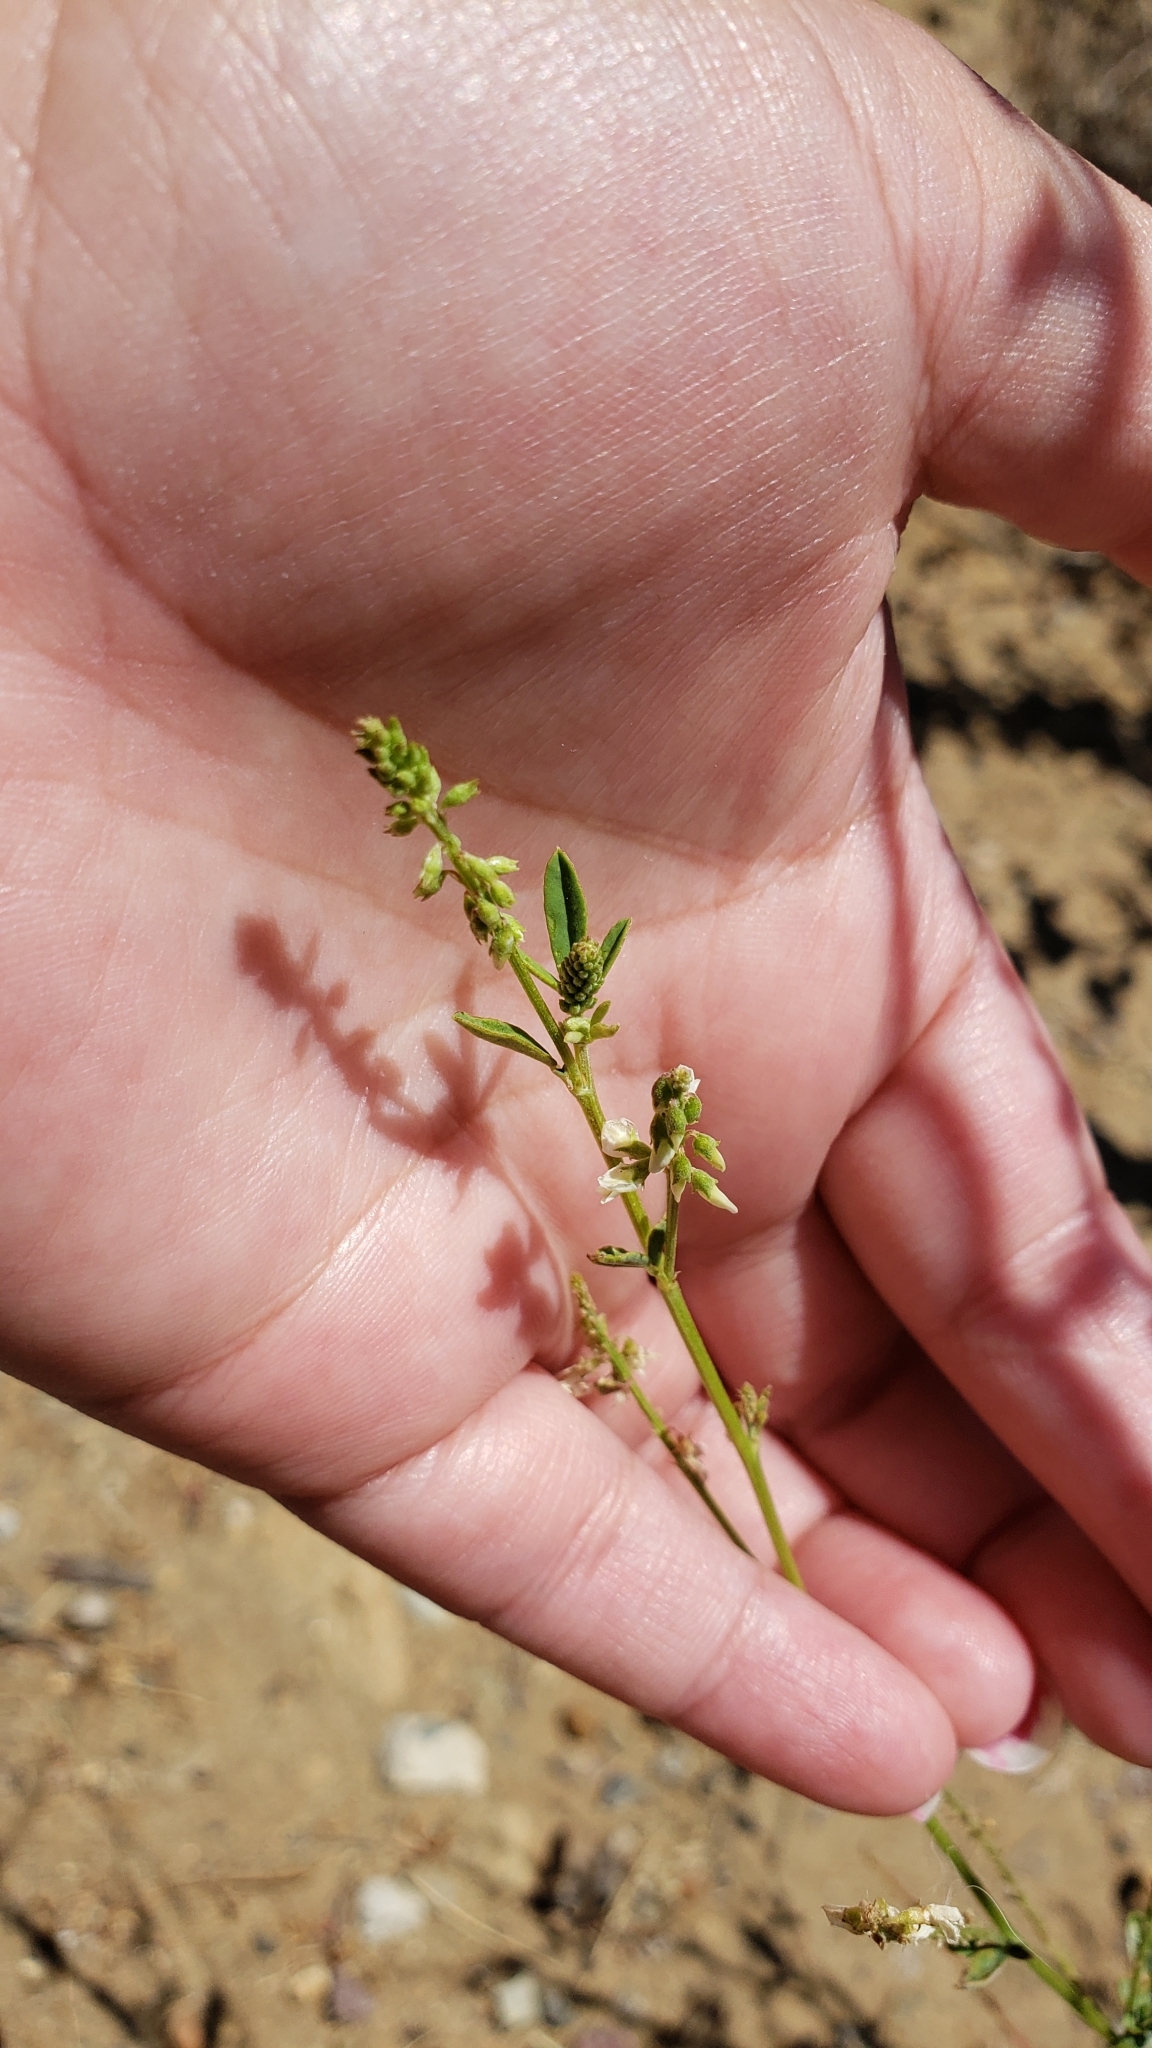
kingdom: Plantae
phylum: Tracheophyta
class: Magnoliopsida
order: Fabales
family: Fabaceae
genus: Melilotus
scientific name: Melilotus albus
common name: White melilot
